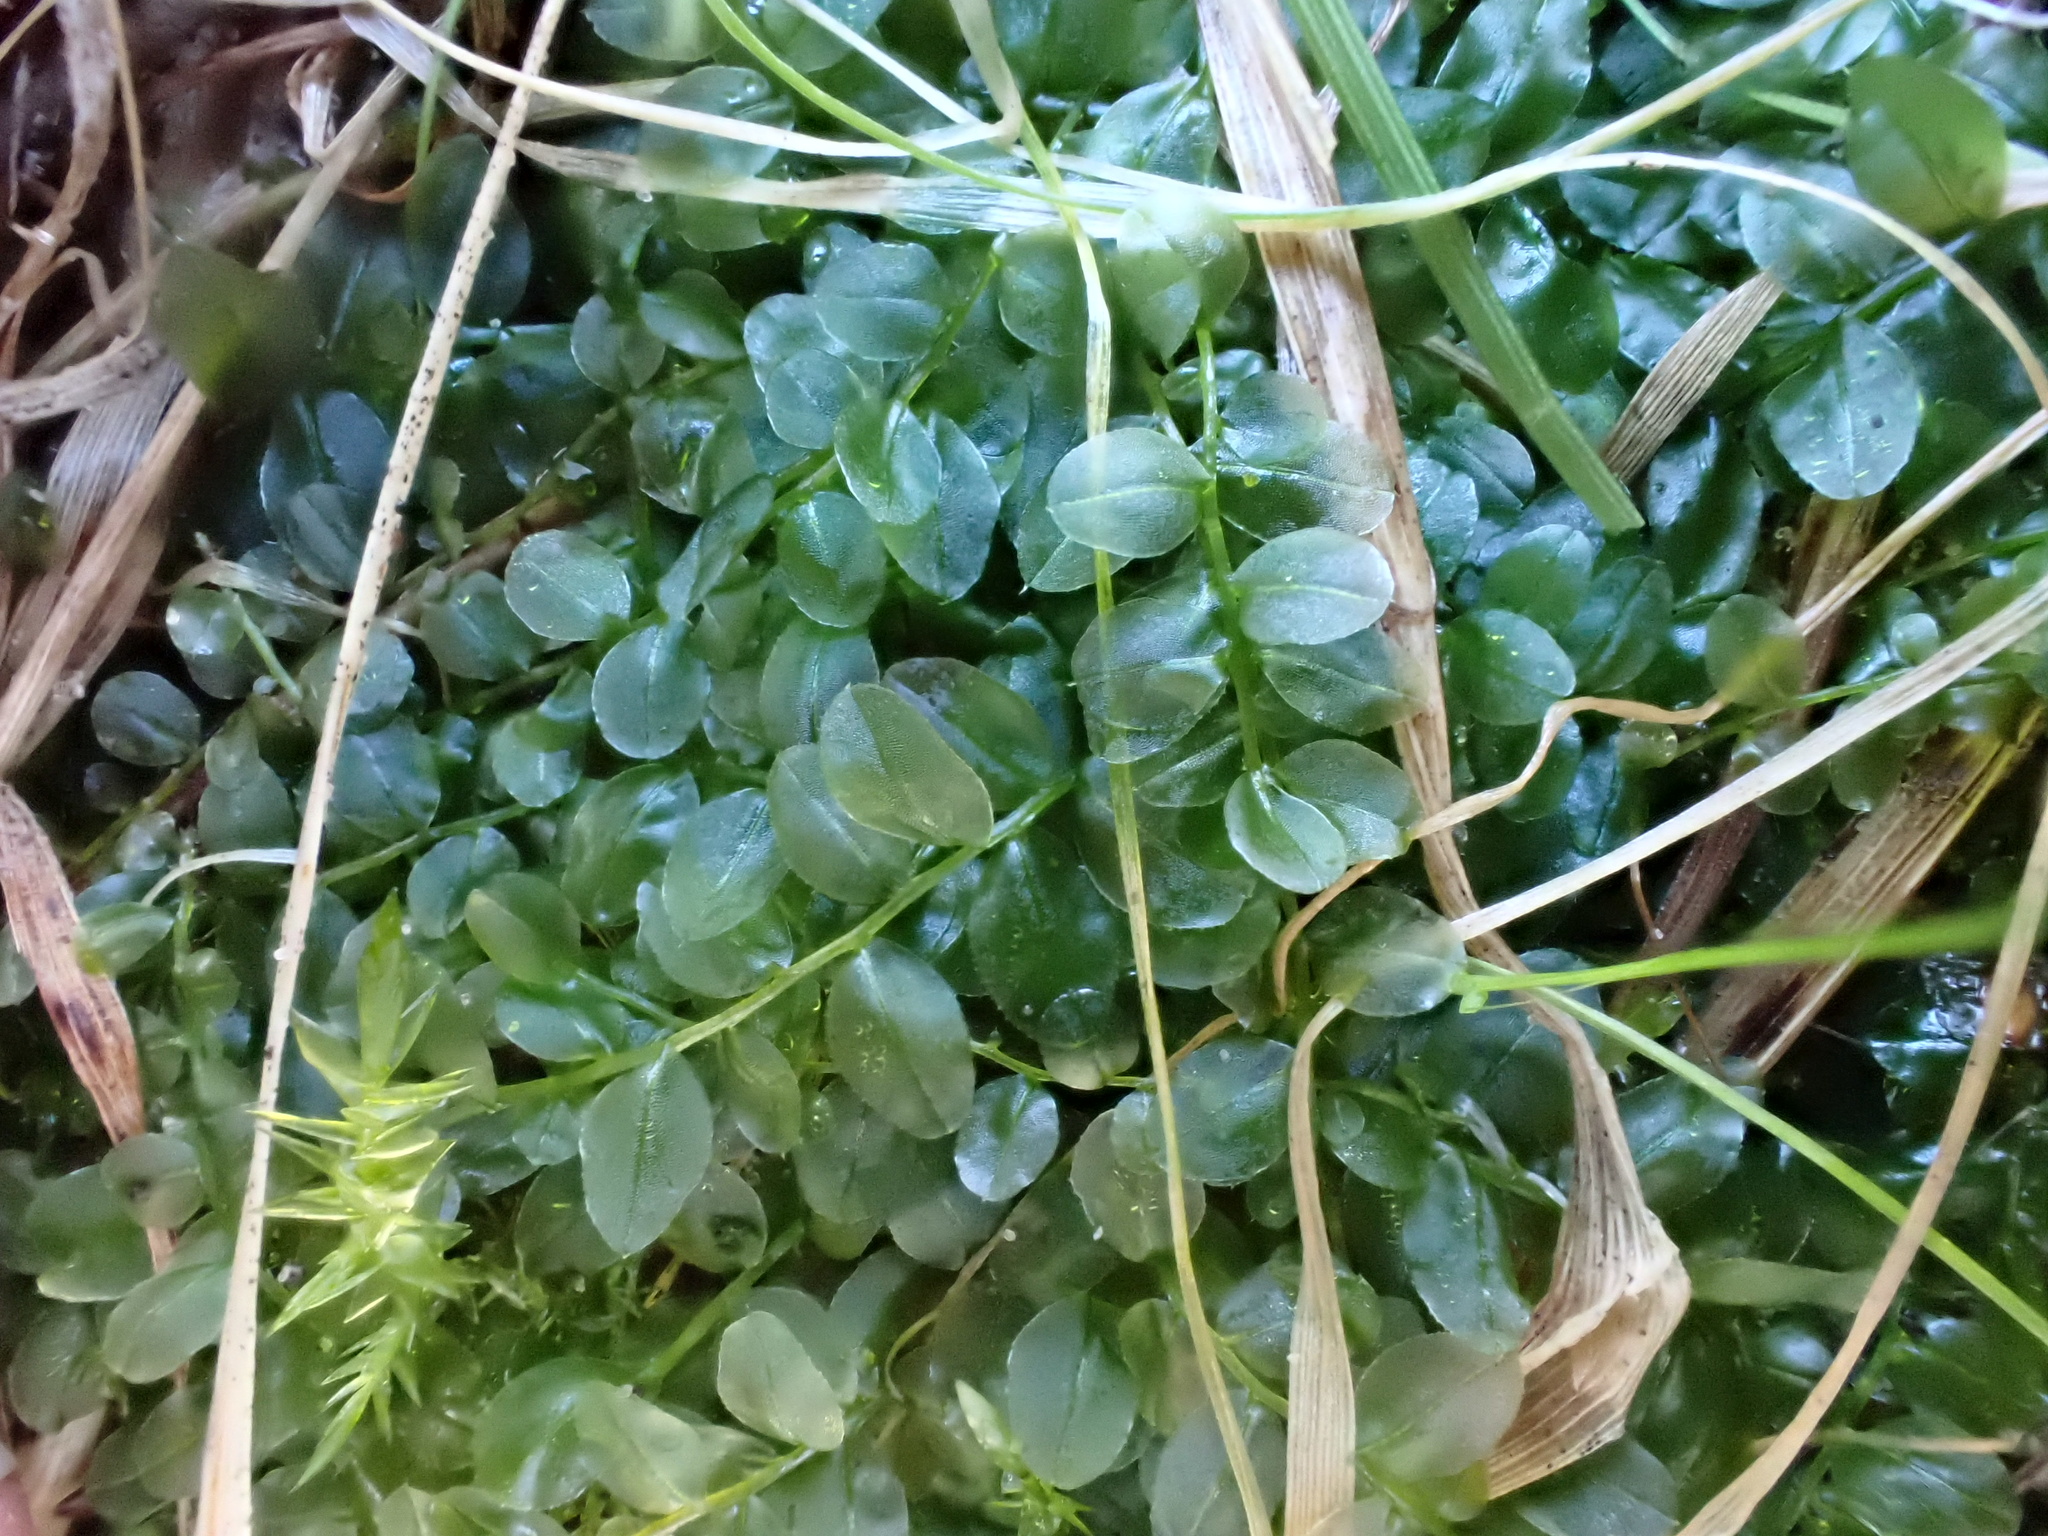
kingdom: Plantae
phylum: Bryophyta
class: Bryopsida
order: Bryales
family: Mniaceae
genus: Plagiomnium
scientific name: Plagiomnium affine
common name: Many-fruited thyme-moss
